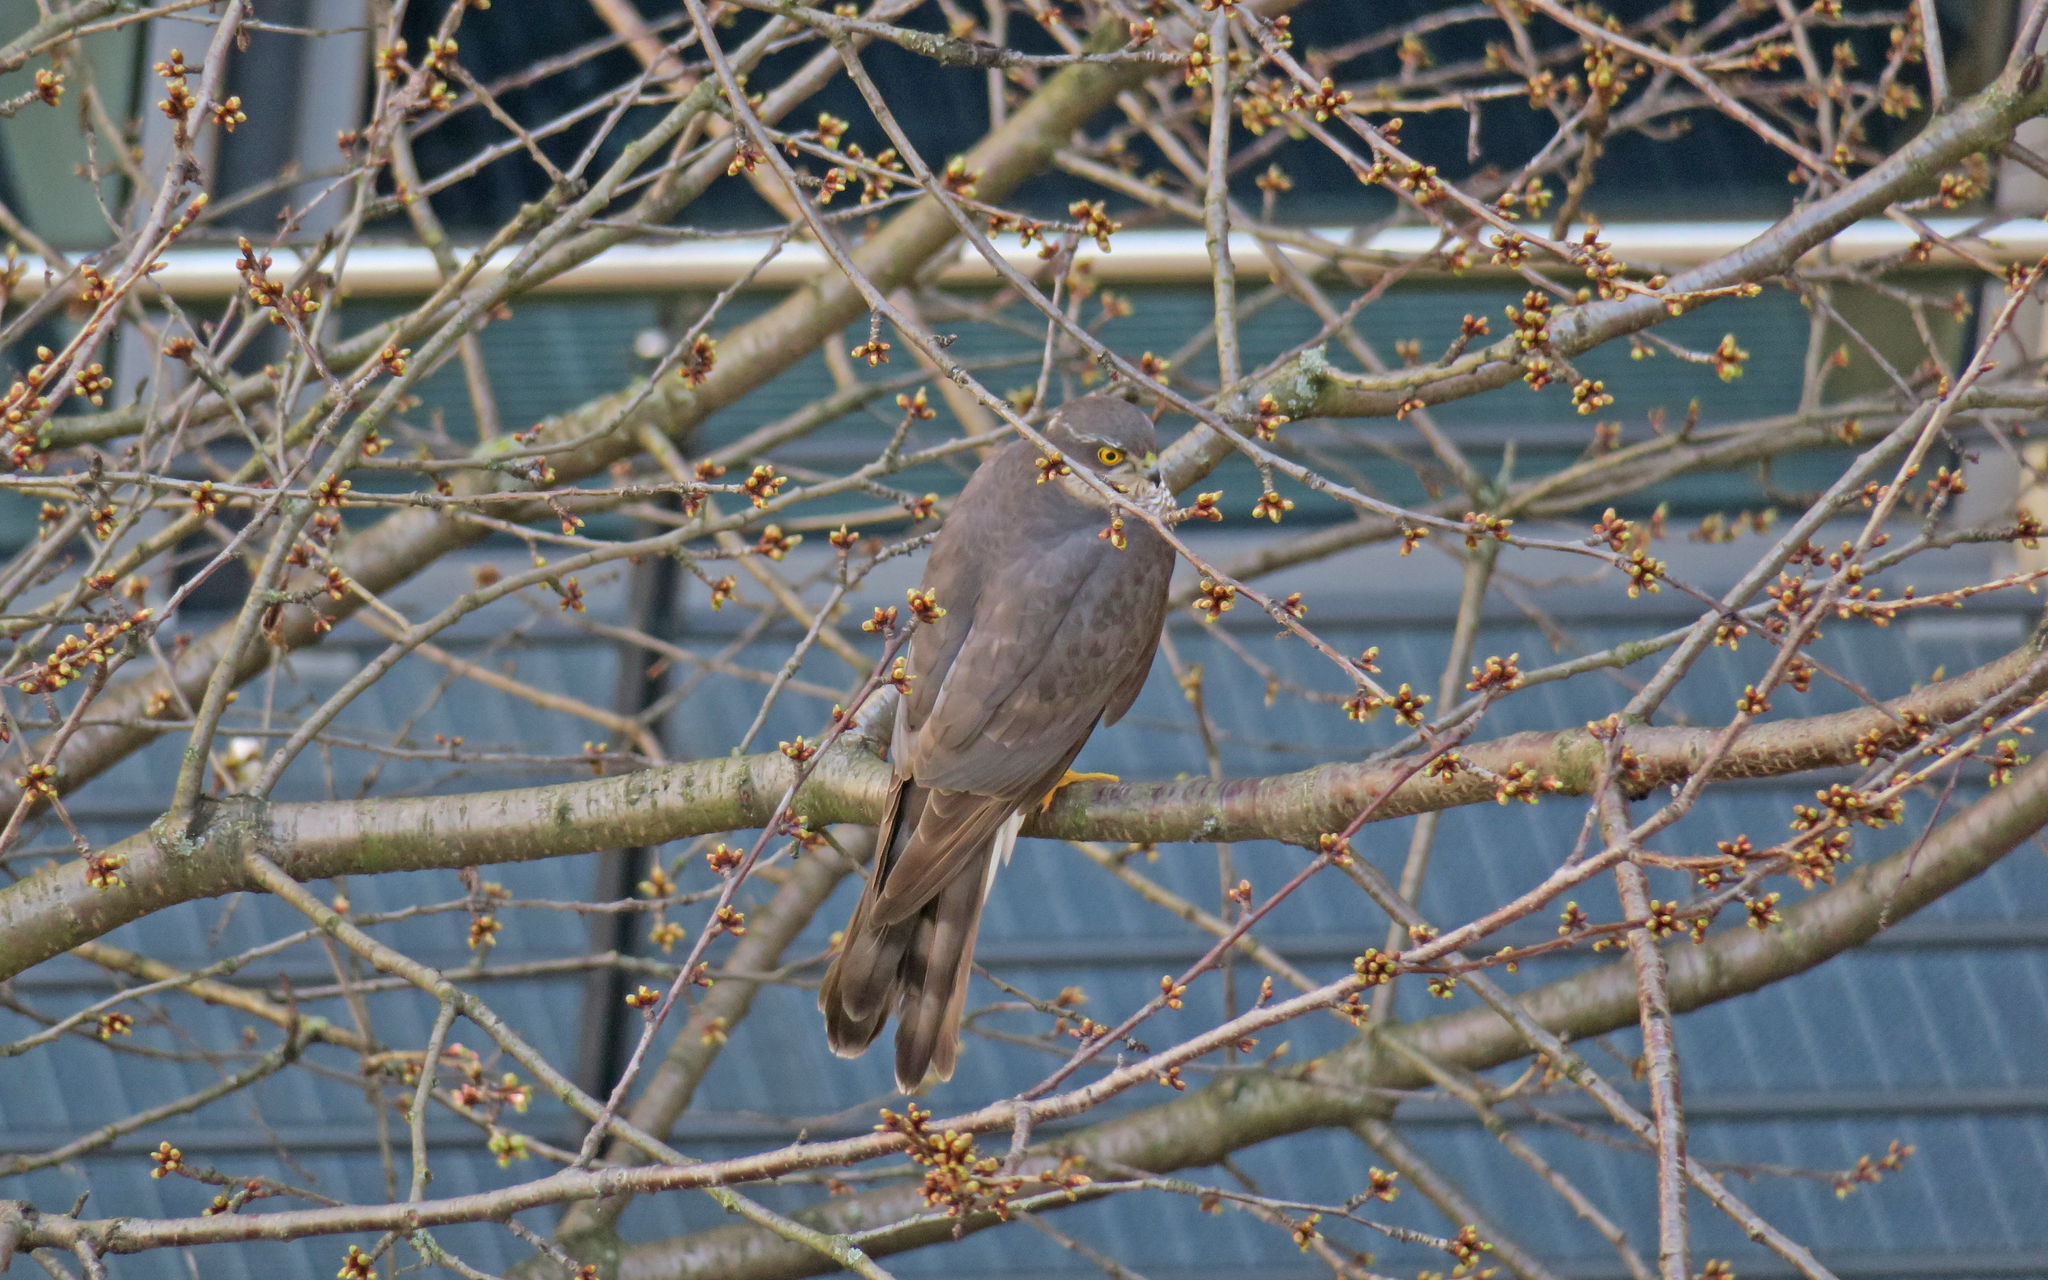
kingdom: Animalia
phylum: Chordata
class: Aves
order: Accipitriformes
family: Accipitridae
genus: Accipiter
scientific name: Accipiter nisus
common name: Eurasian sparrowhawk
